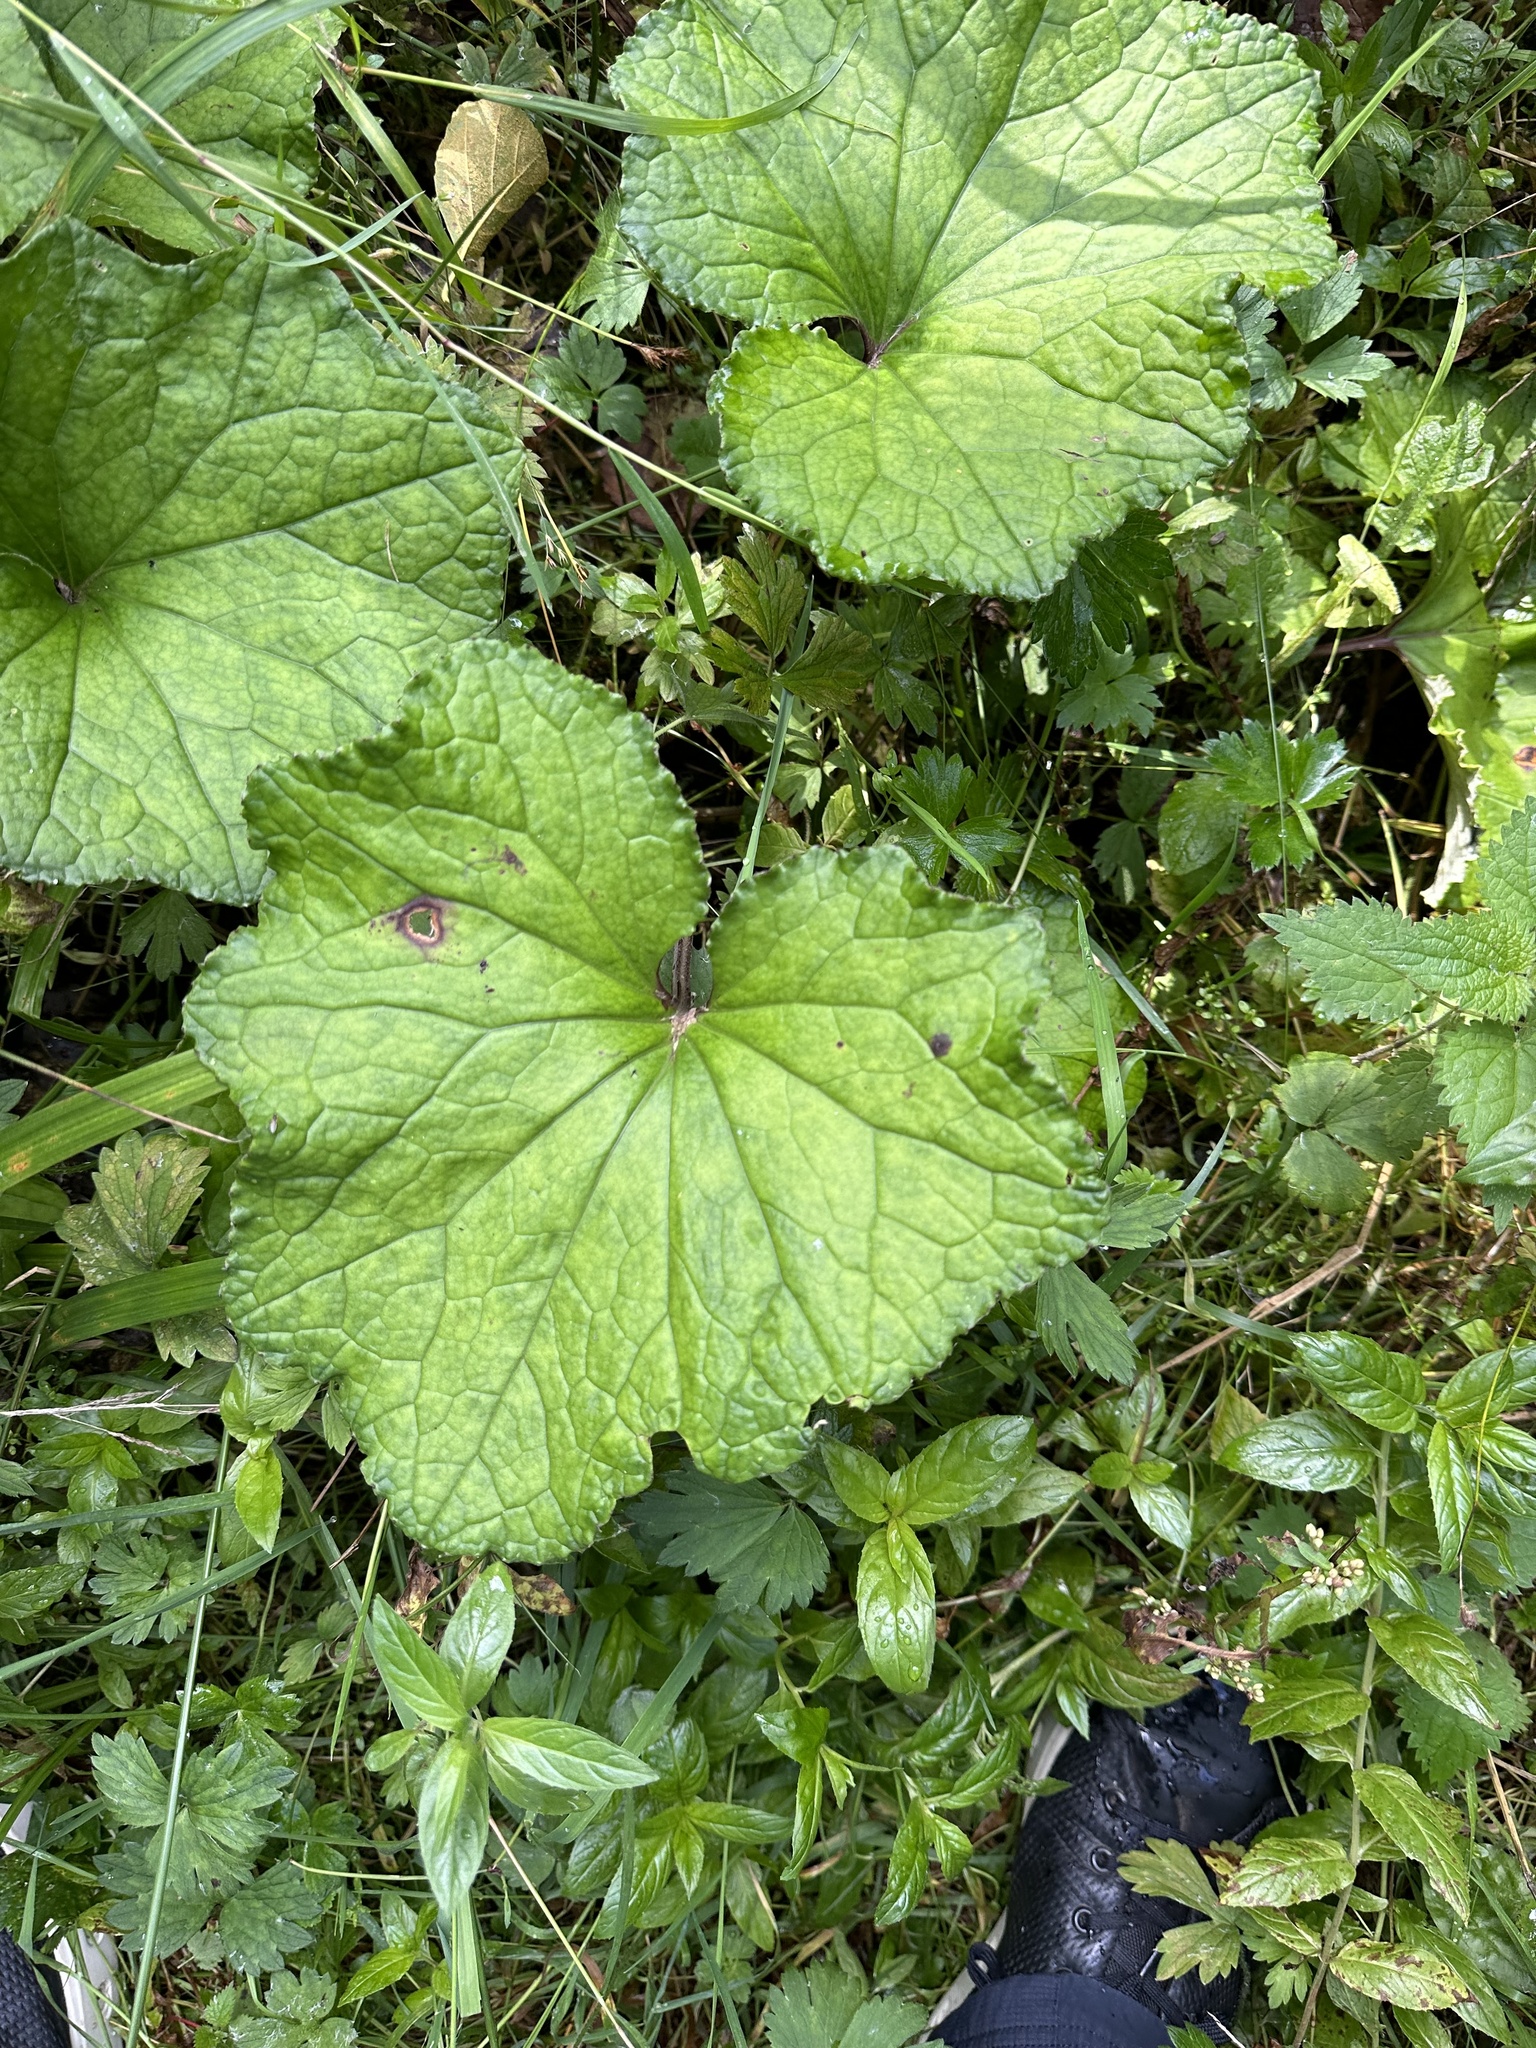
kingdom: Plantae
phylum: Tracheophyta
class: Magnoliopsida
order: Asterales
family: Asteraceae
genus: Tussilago
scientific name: Tussilago farfara
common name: Coltsfoot
